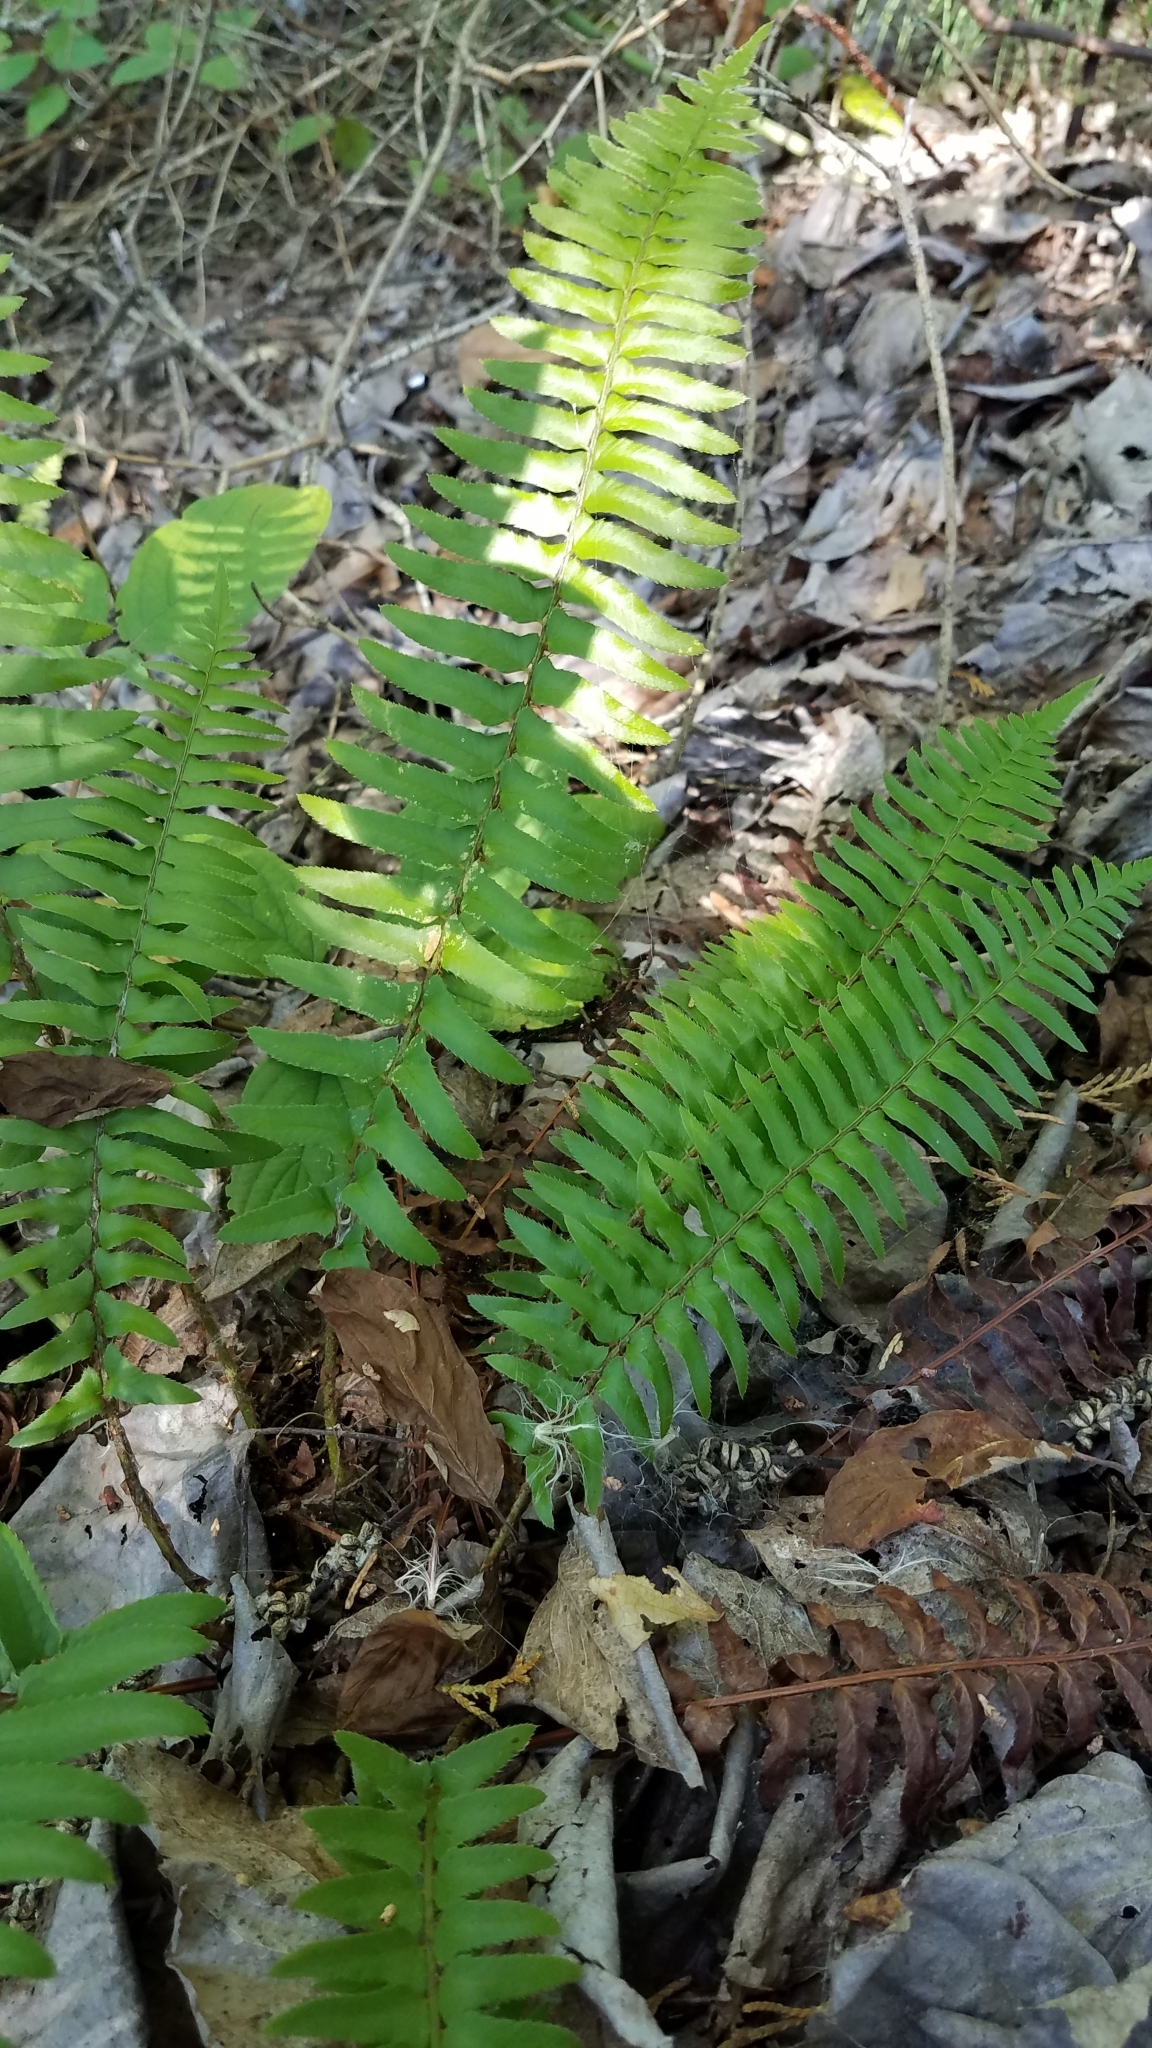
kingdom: Plantae
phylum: Tracheophyta
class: Polypodiopsida
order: Polypodiales
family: Dryopteridaceae
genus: Polystichum
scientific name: Polystichum munitum
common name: Western sword-fern
